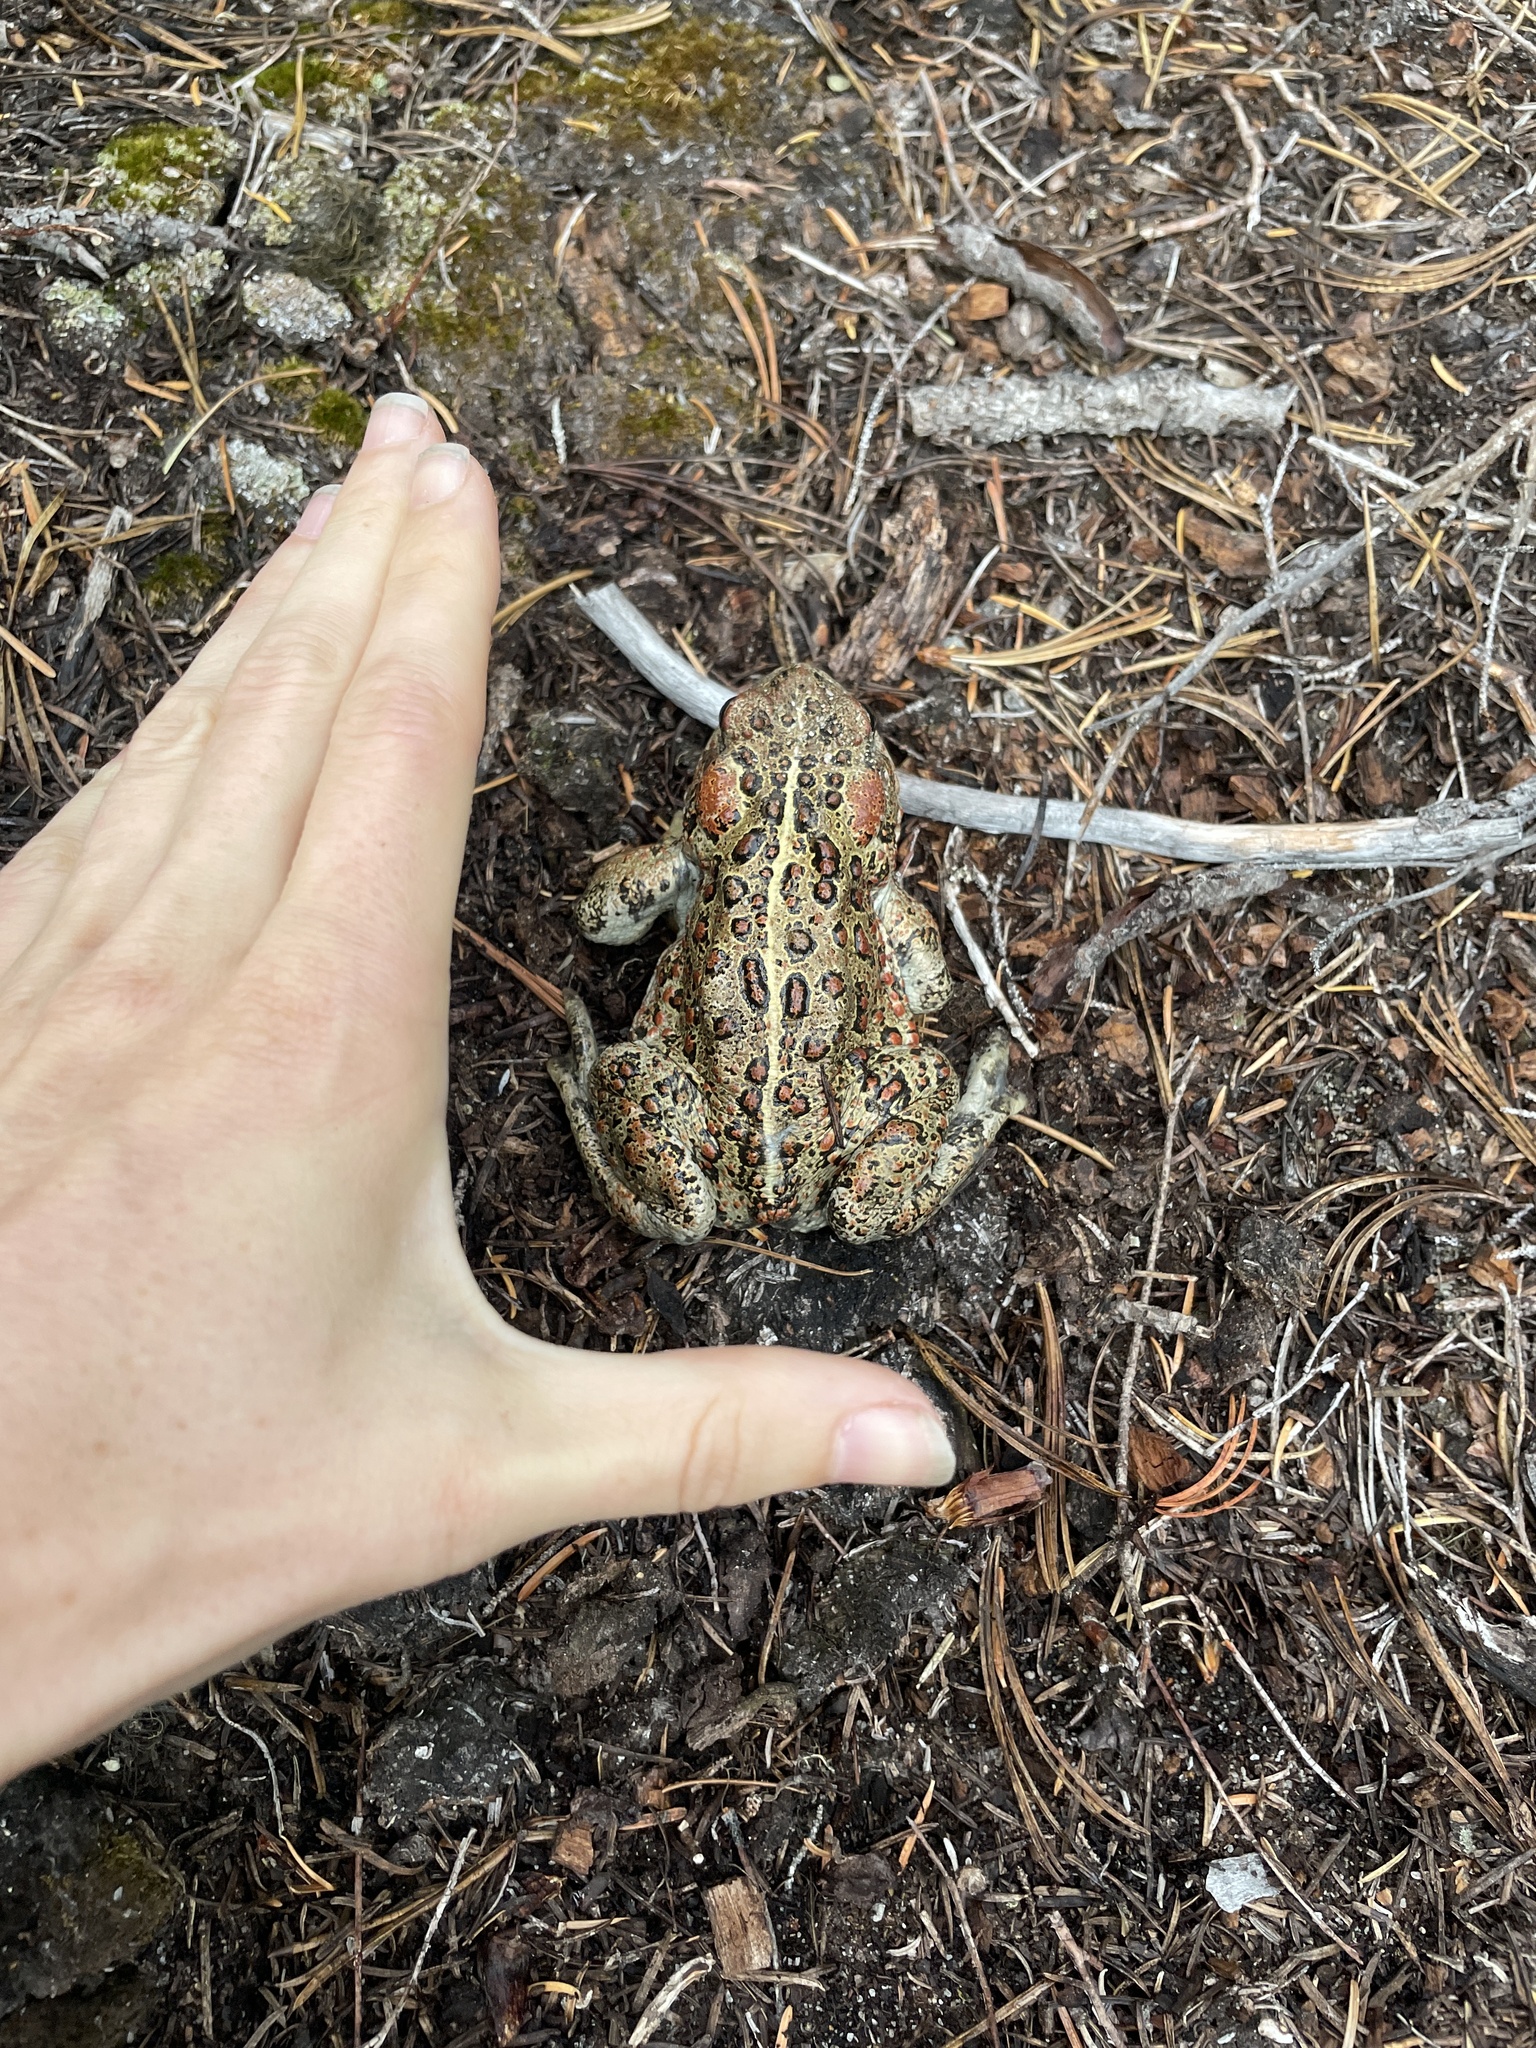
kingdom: Animalia
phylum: Chordata
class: Amphibia
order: Anura
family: Bufonidae
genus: Anaxyrus
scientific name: Anaxyrus boreas
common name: Western toad
